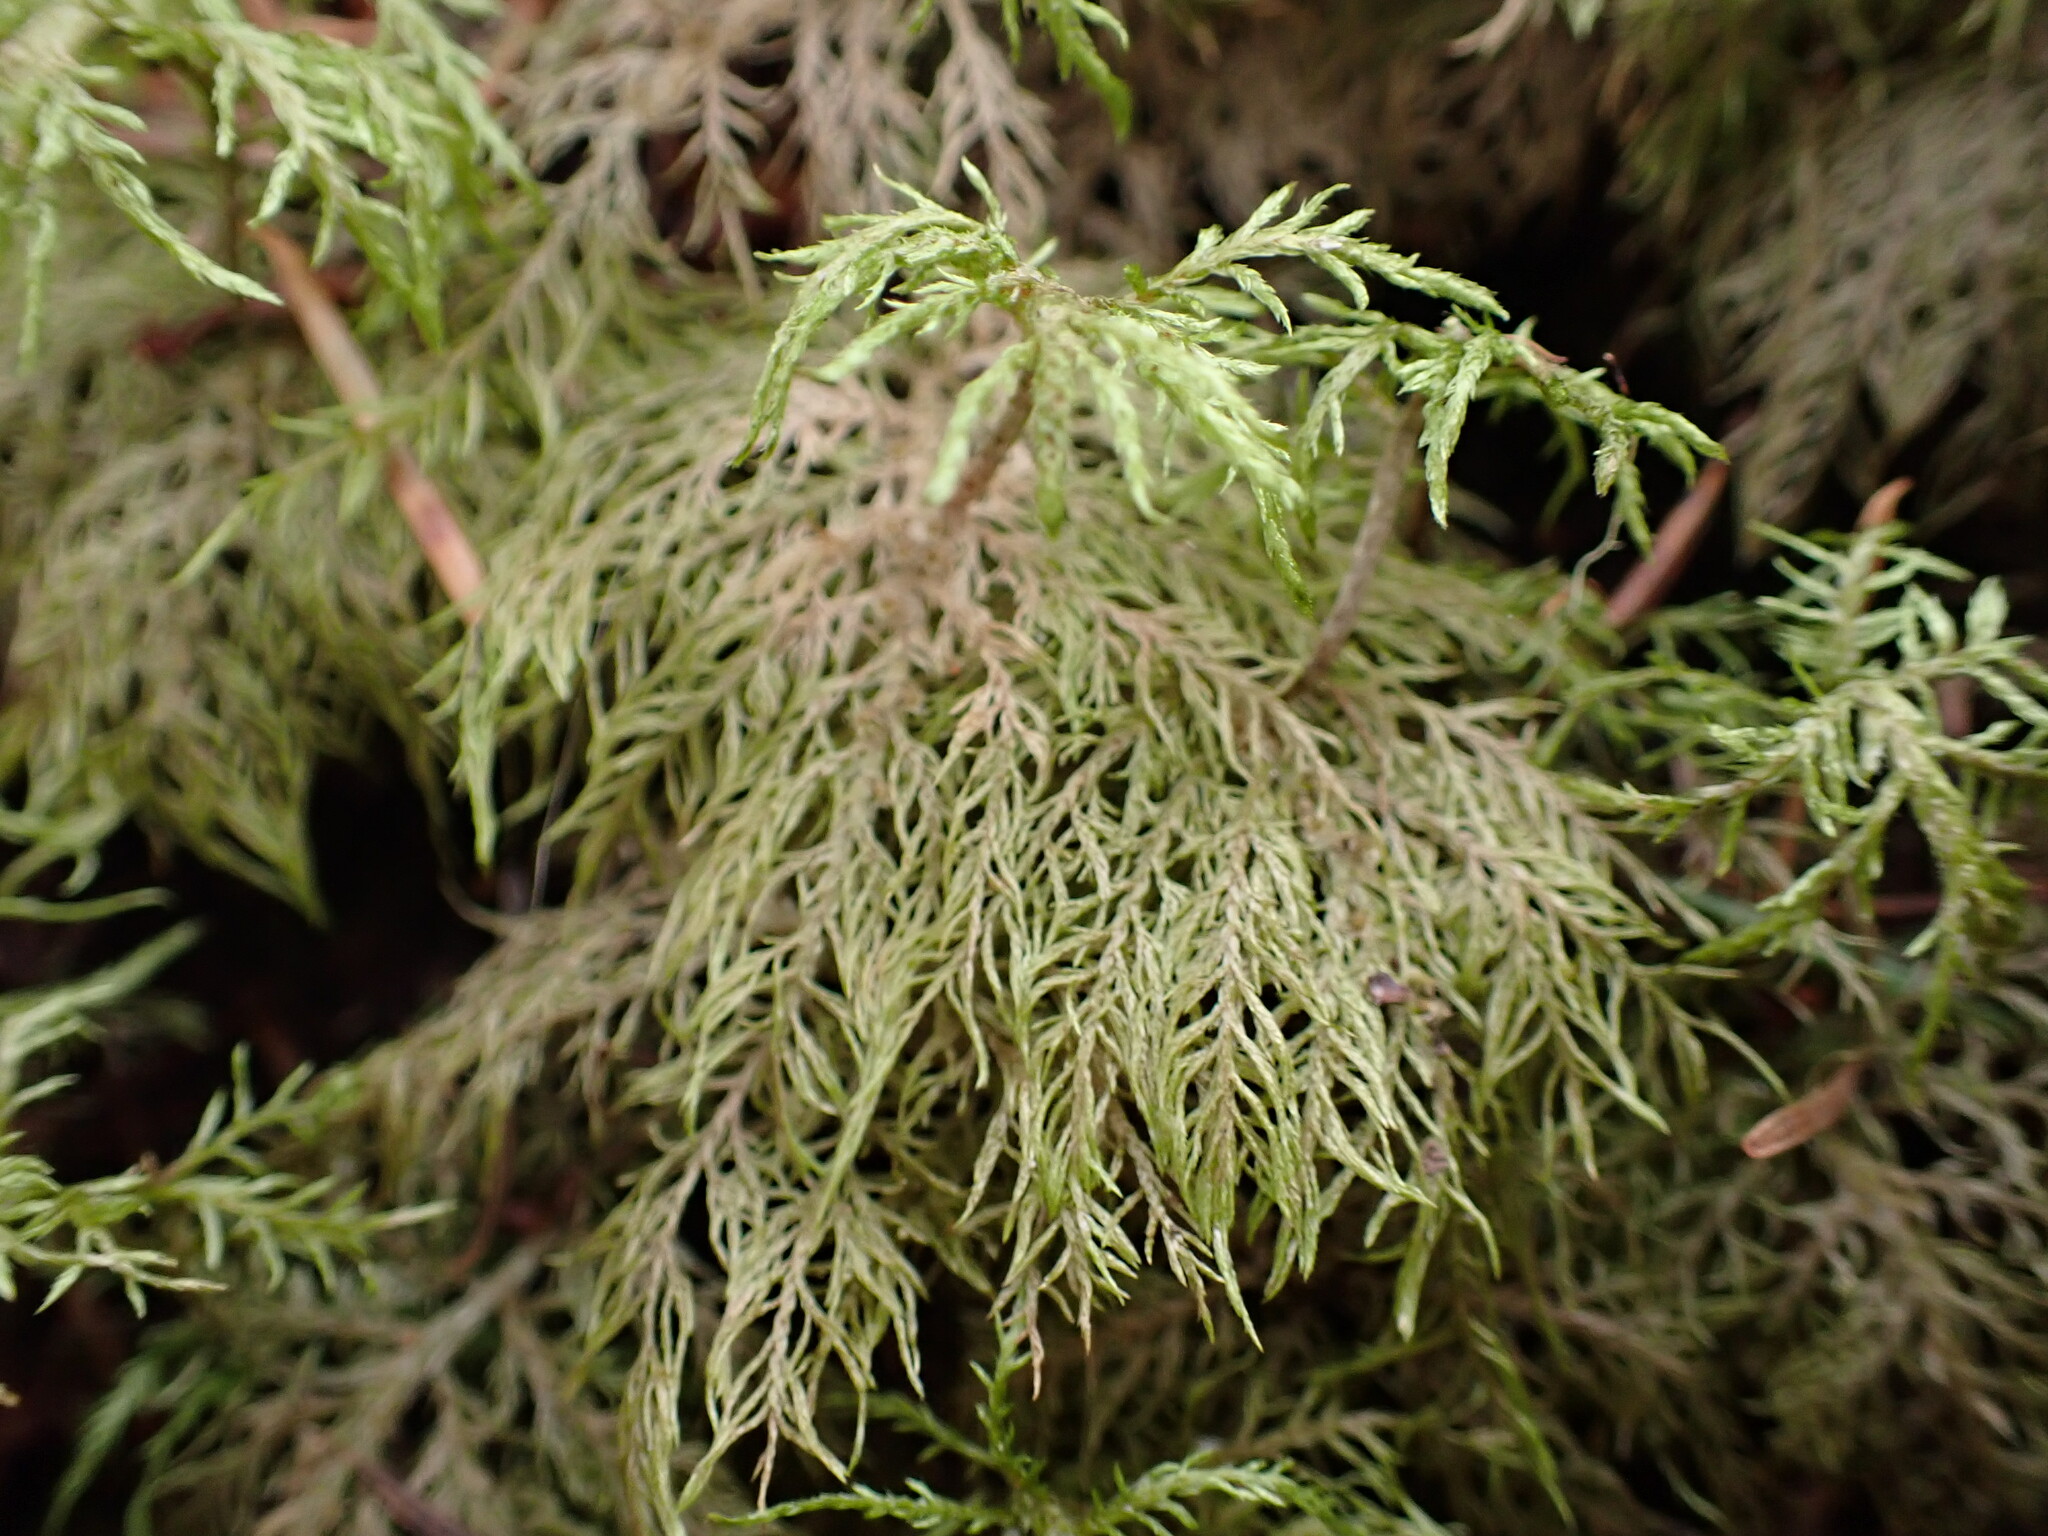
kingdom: Plantae
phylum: Bryophyta
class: Bryopsida
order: Hypnales
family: Hylocomiaceae
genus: Hylocomium
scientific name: Hylocomium splendens
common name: Stairstep moss
